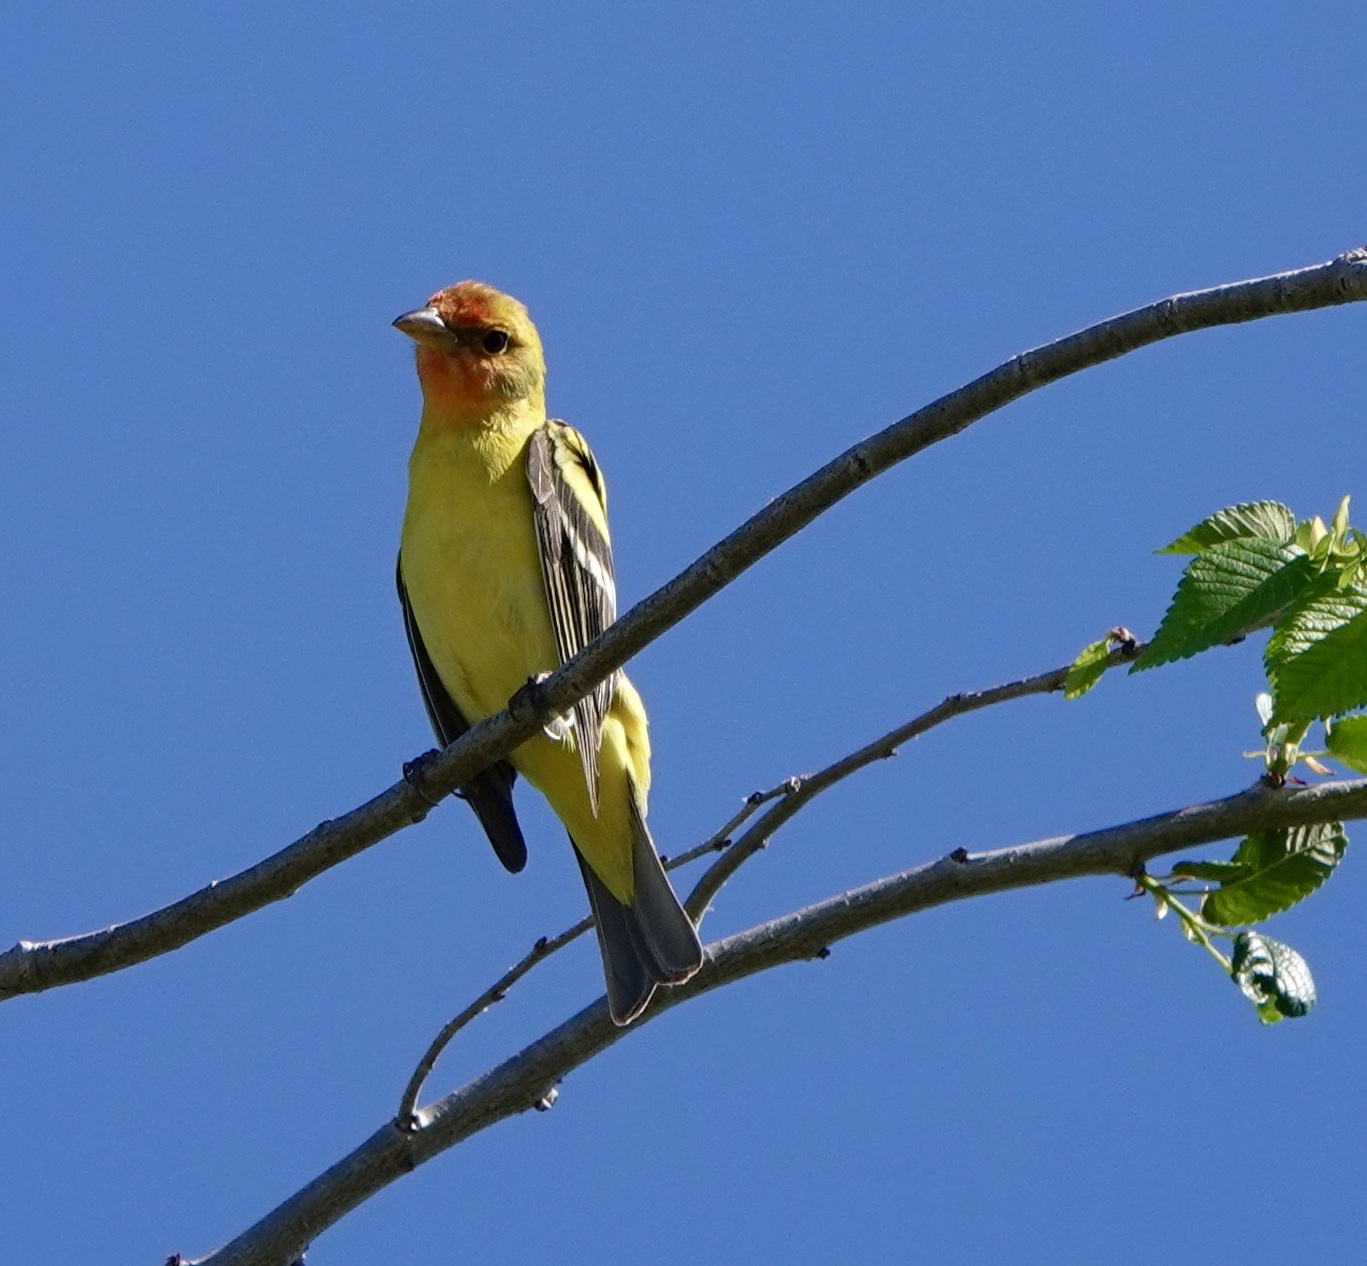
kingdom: Animalia
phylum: Chordata
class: Aves
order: Passeriformes
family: Cardinalidae
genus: Piranga
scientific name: Piranga ludoviciana
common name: Western tanager
